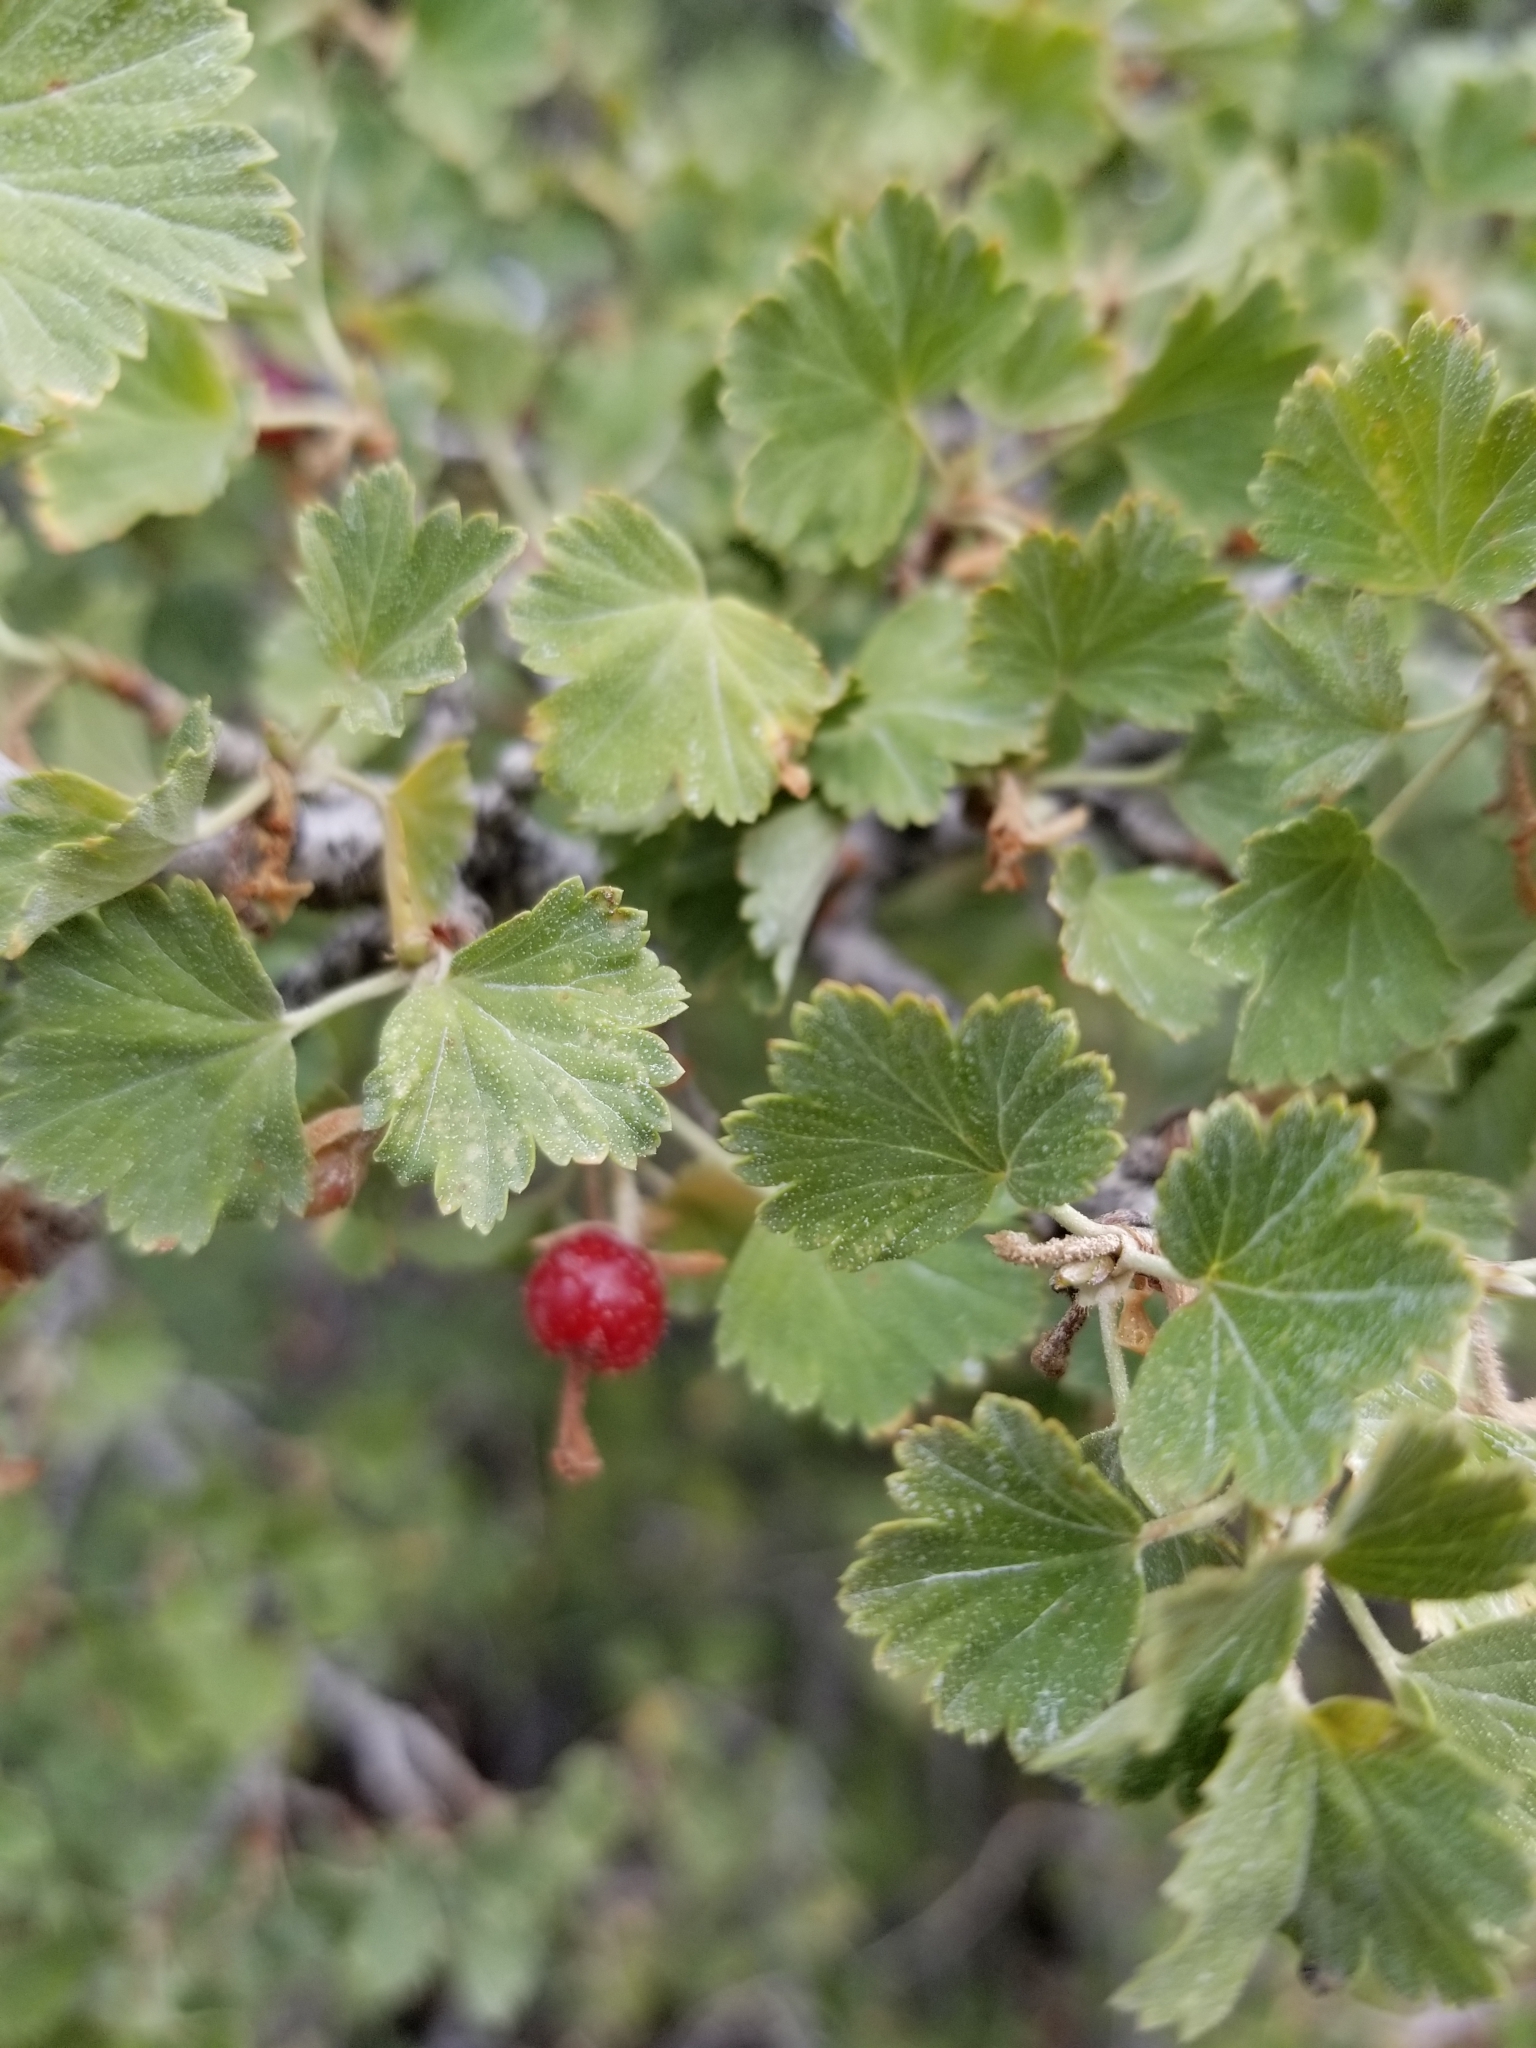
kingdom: Plantae
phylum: Tracheophyta
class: Magnoliopsida
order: Saxifragales
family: Grossulariaceae
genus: Ribes
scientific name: Ribes cereum
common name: Wax currant
